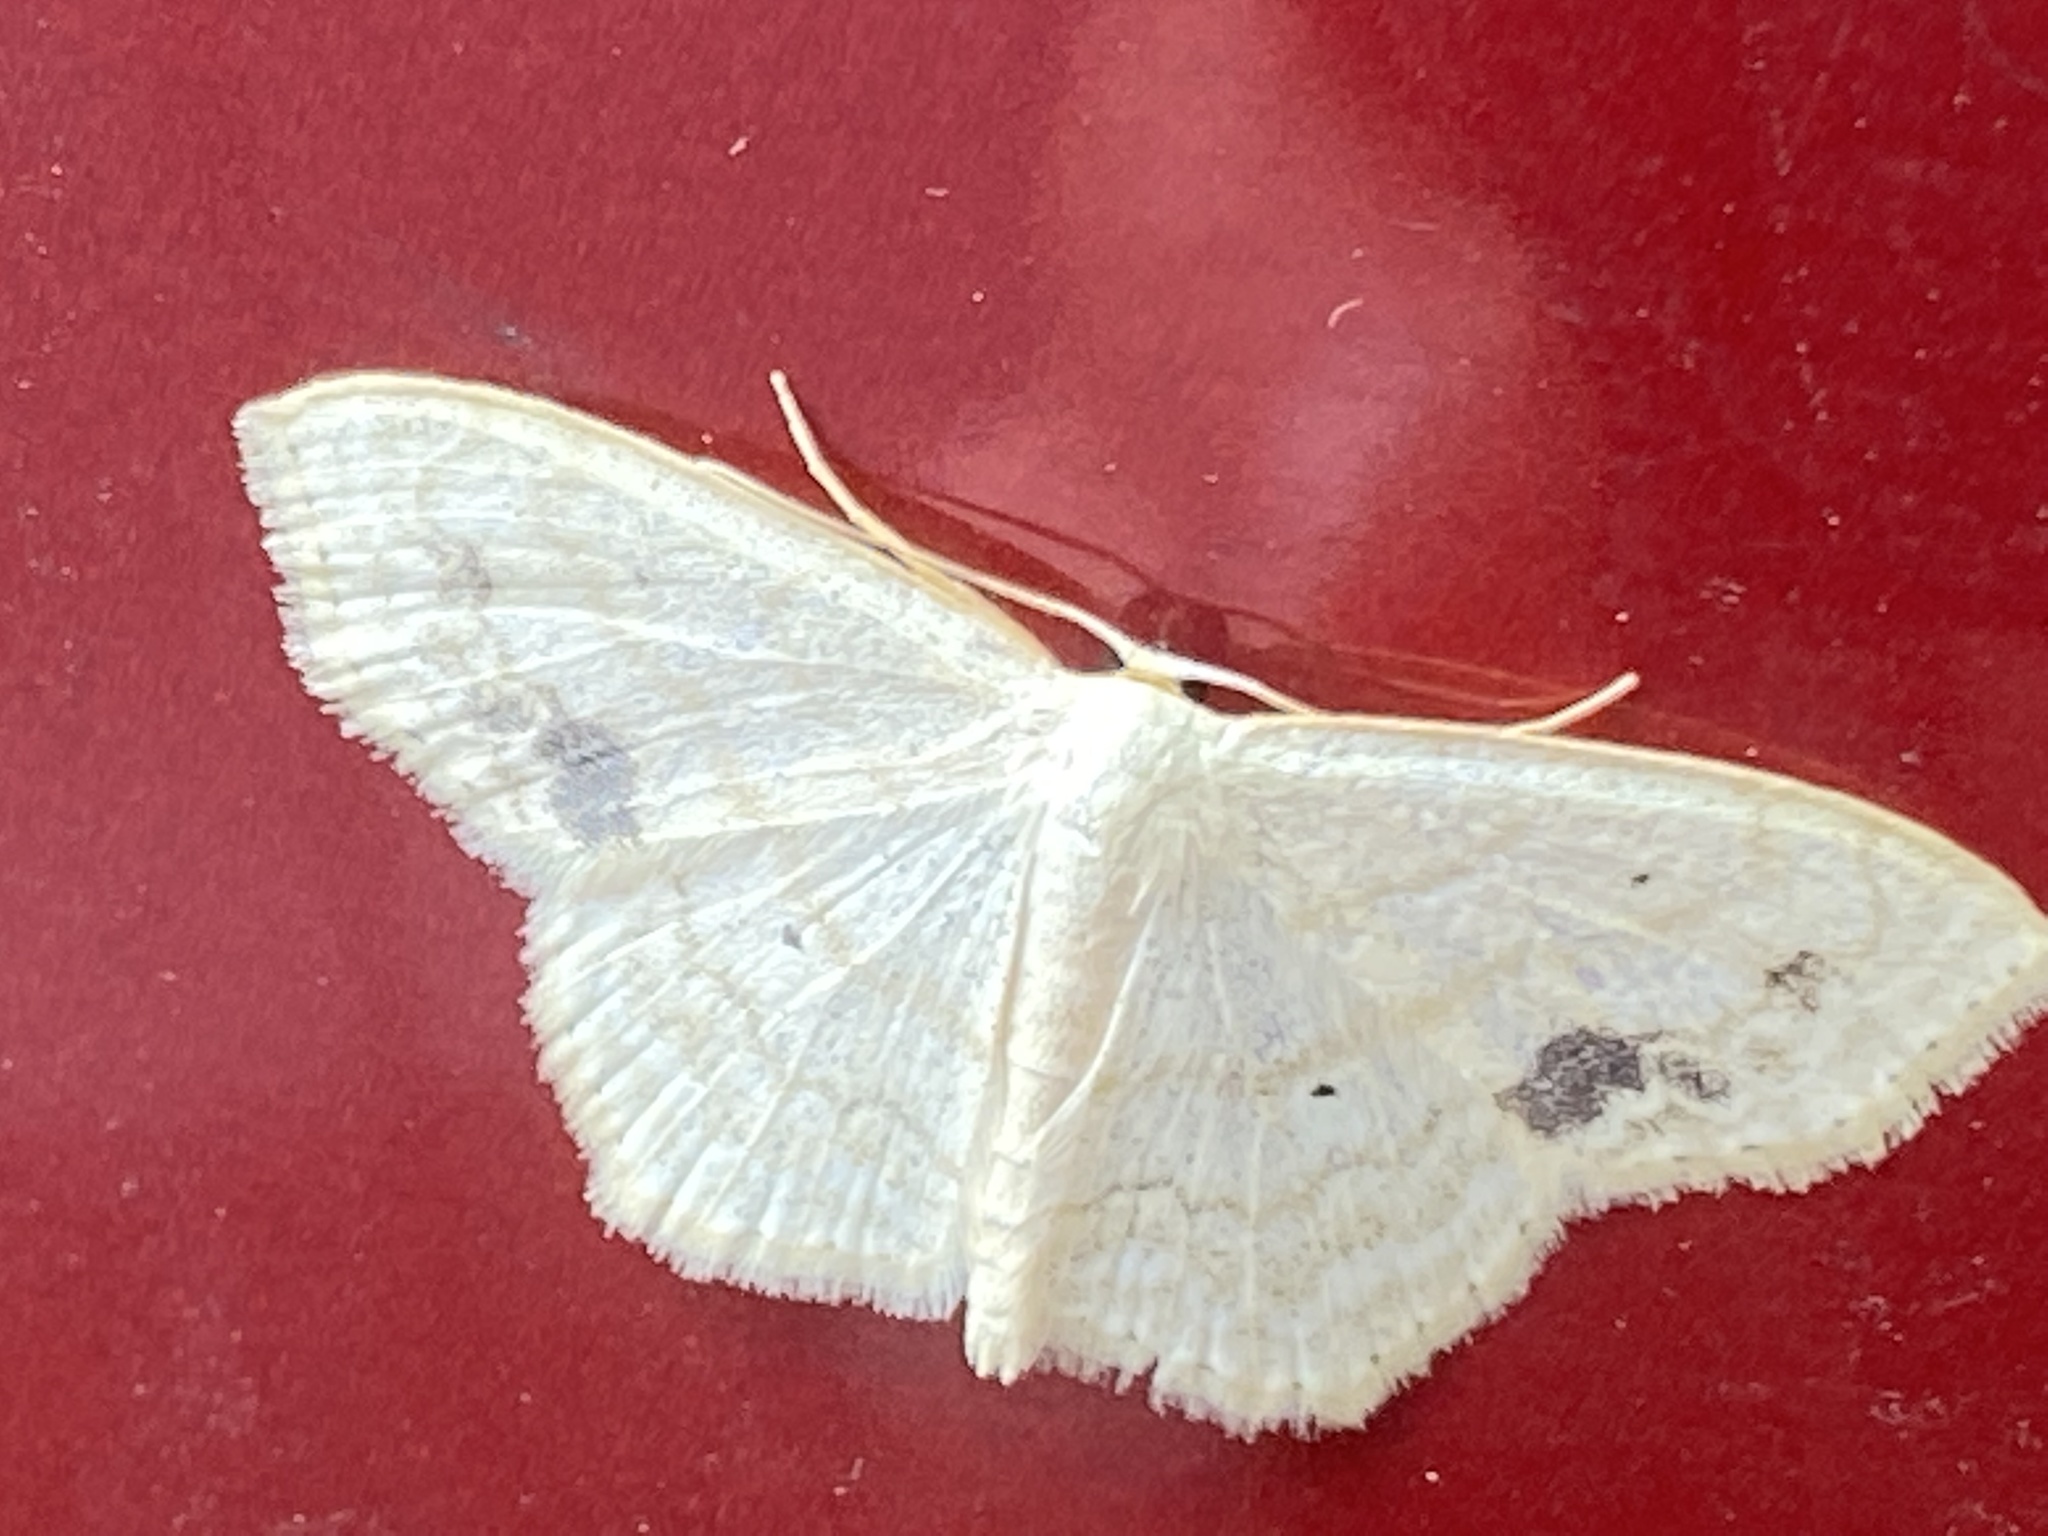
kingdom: Animalia
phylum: Arthropoda
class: Insecta
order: Lepidoptera
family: Geometridae
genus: Scopula
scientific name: Scopula limboundata
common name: Large lace border
